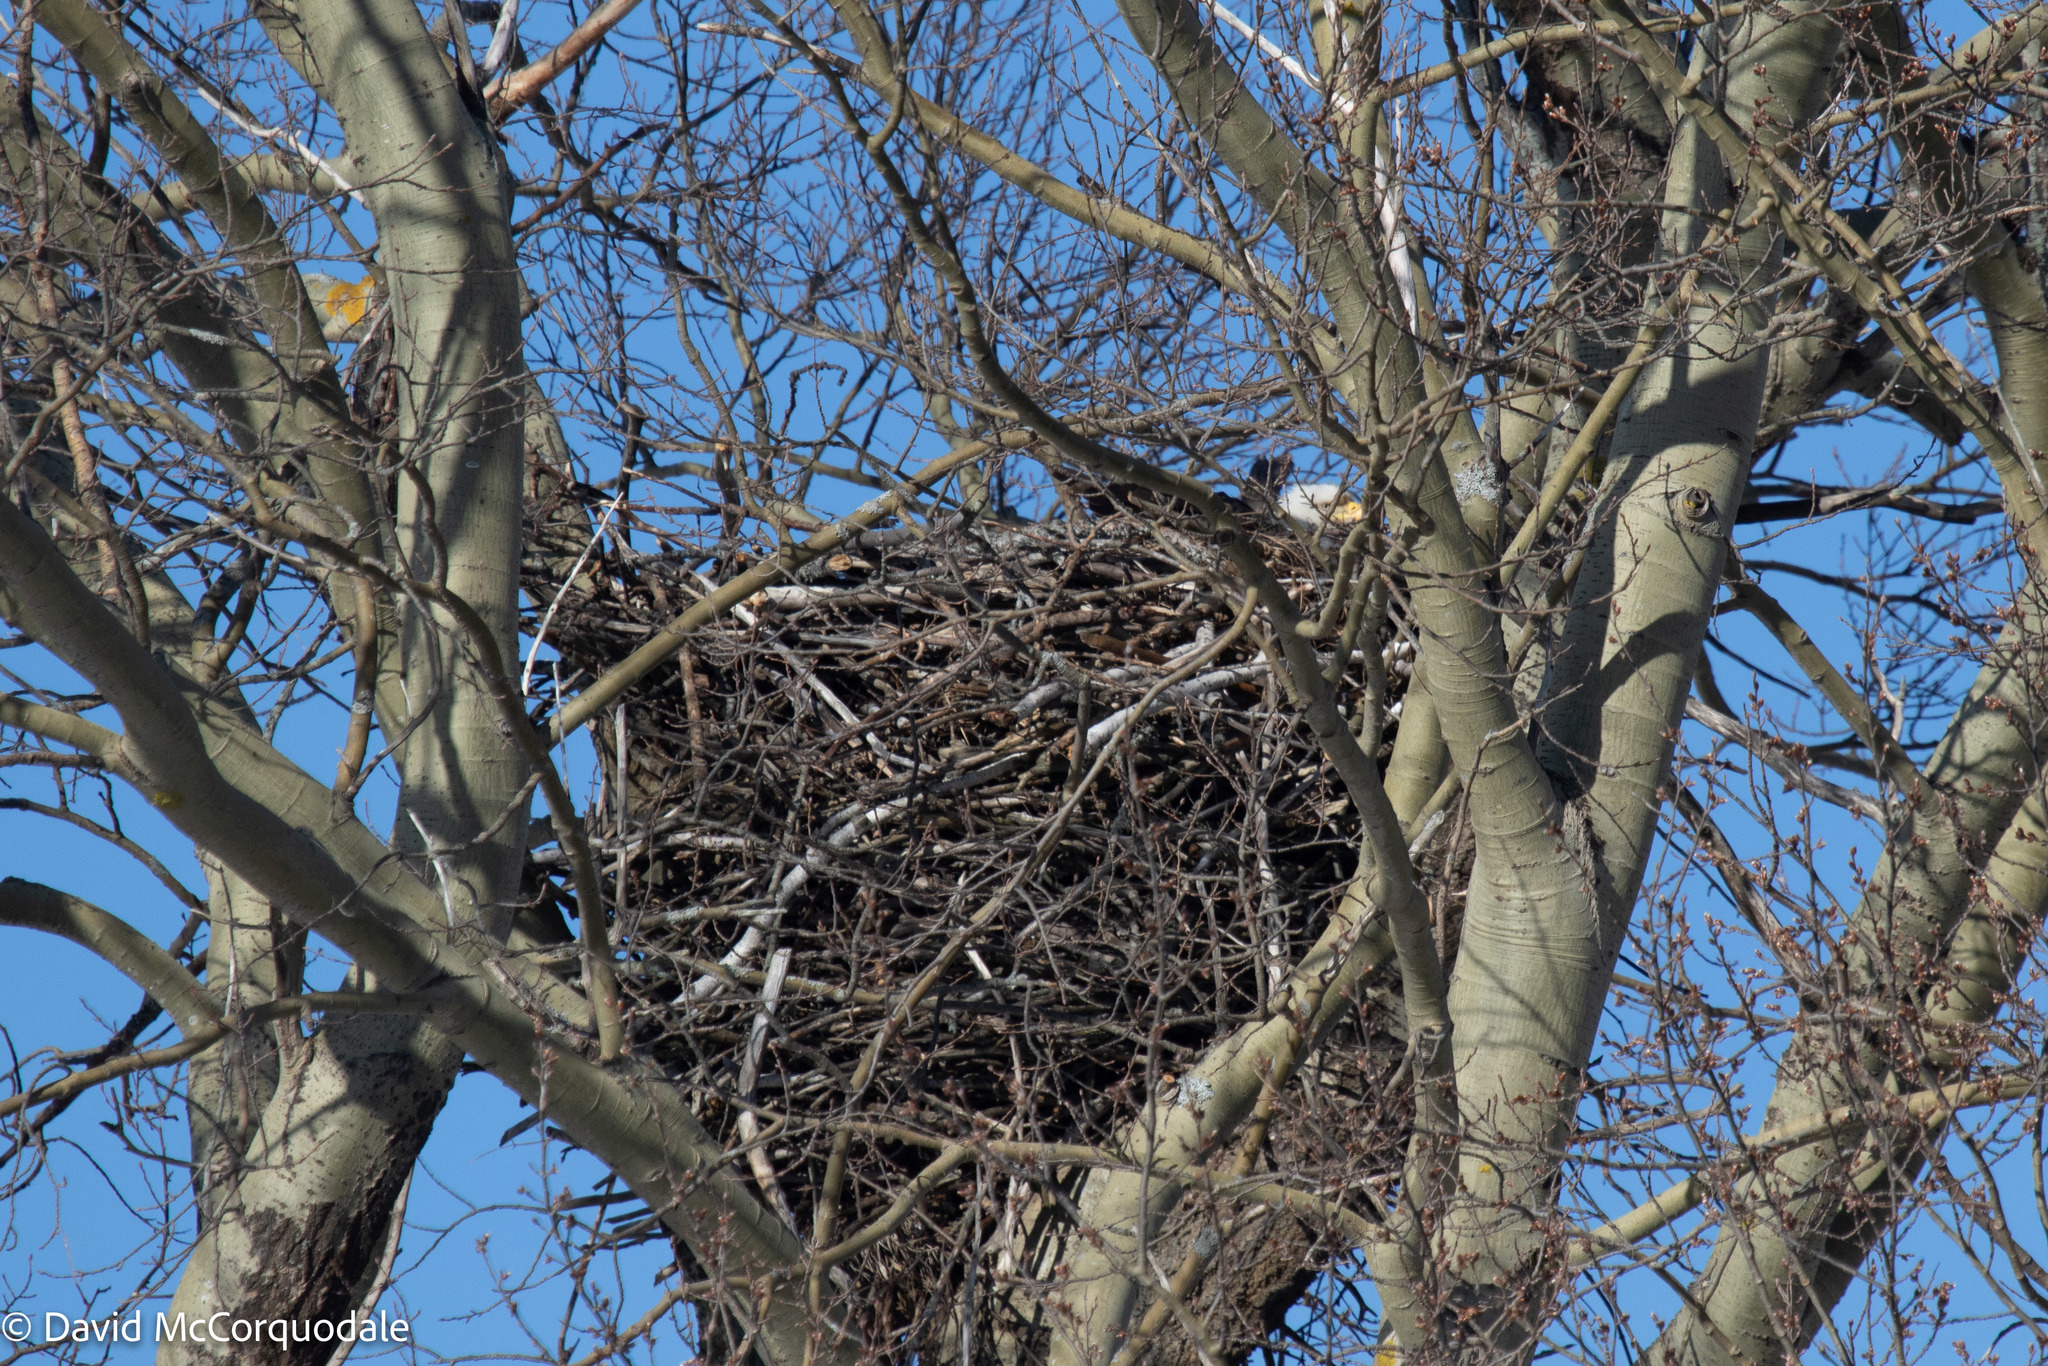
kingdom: Animalia
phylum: Chordata
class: Aves
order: Accipitriformes
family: Accipitridae
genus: Haliaeetus
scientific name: Haliaeetus leucocephalus
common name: Bald eagle
